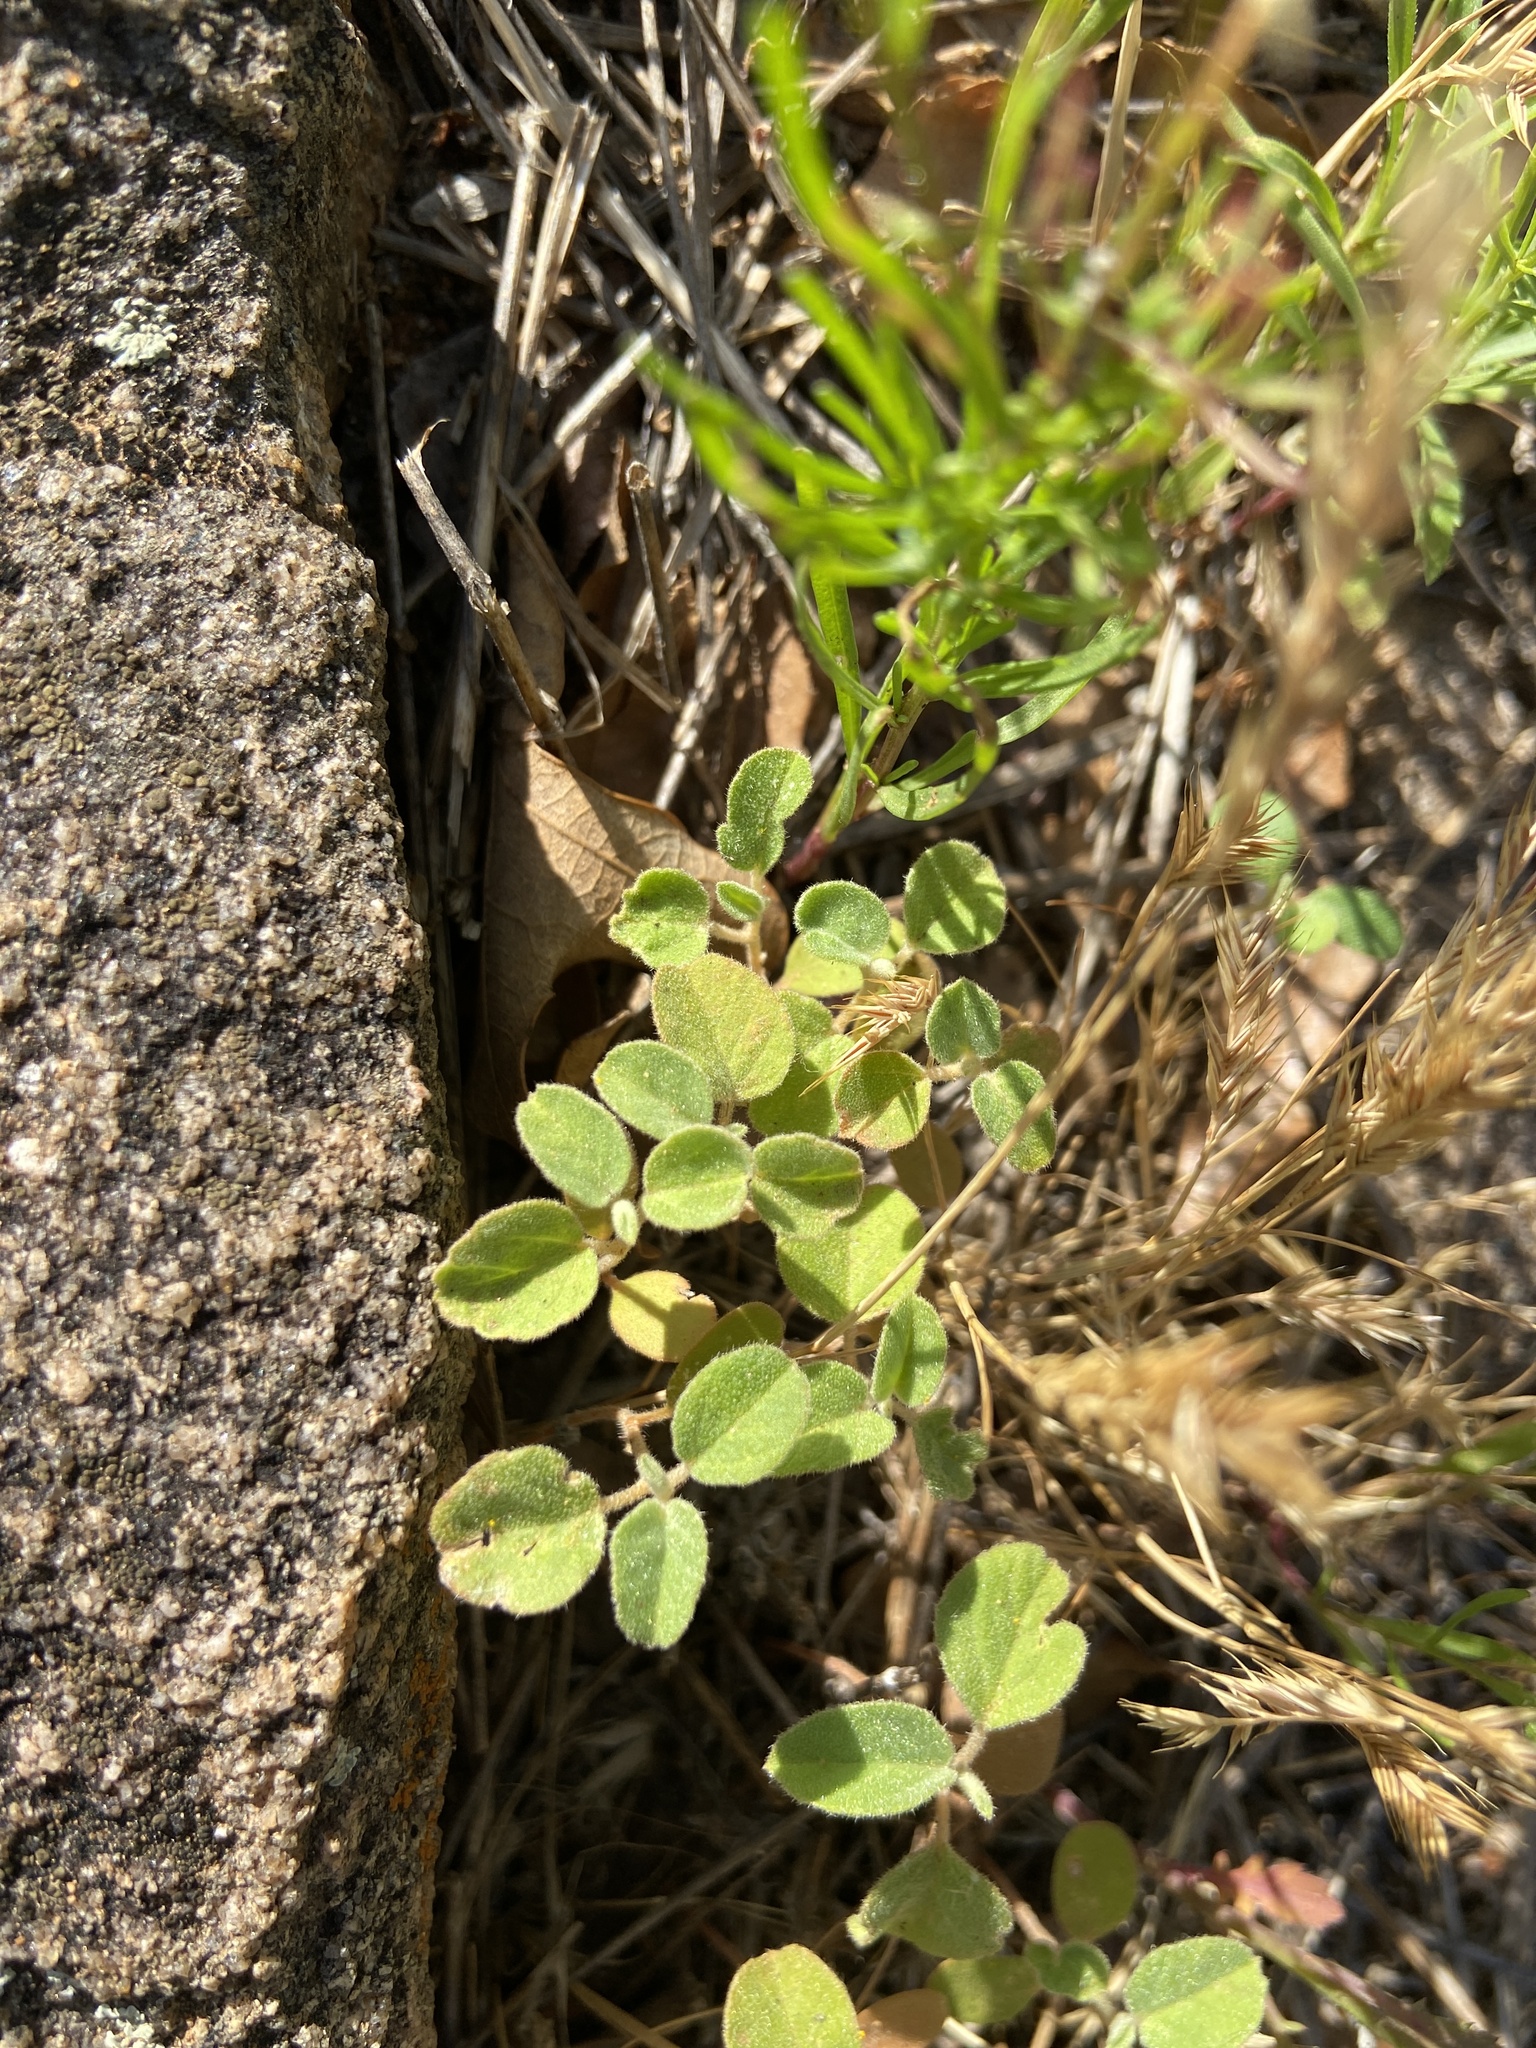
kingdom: Plantae
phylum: Tracheophyta
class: Magnoliopsida
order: Malpighiales
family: Euphorbiaceae
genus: Croton
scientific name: Croton monanthogynus
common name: One-seed croton
